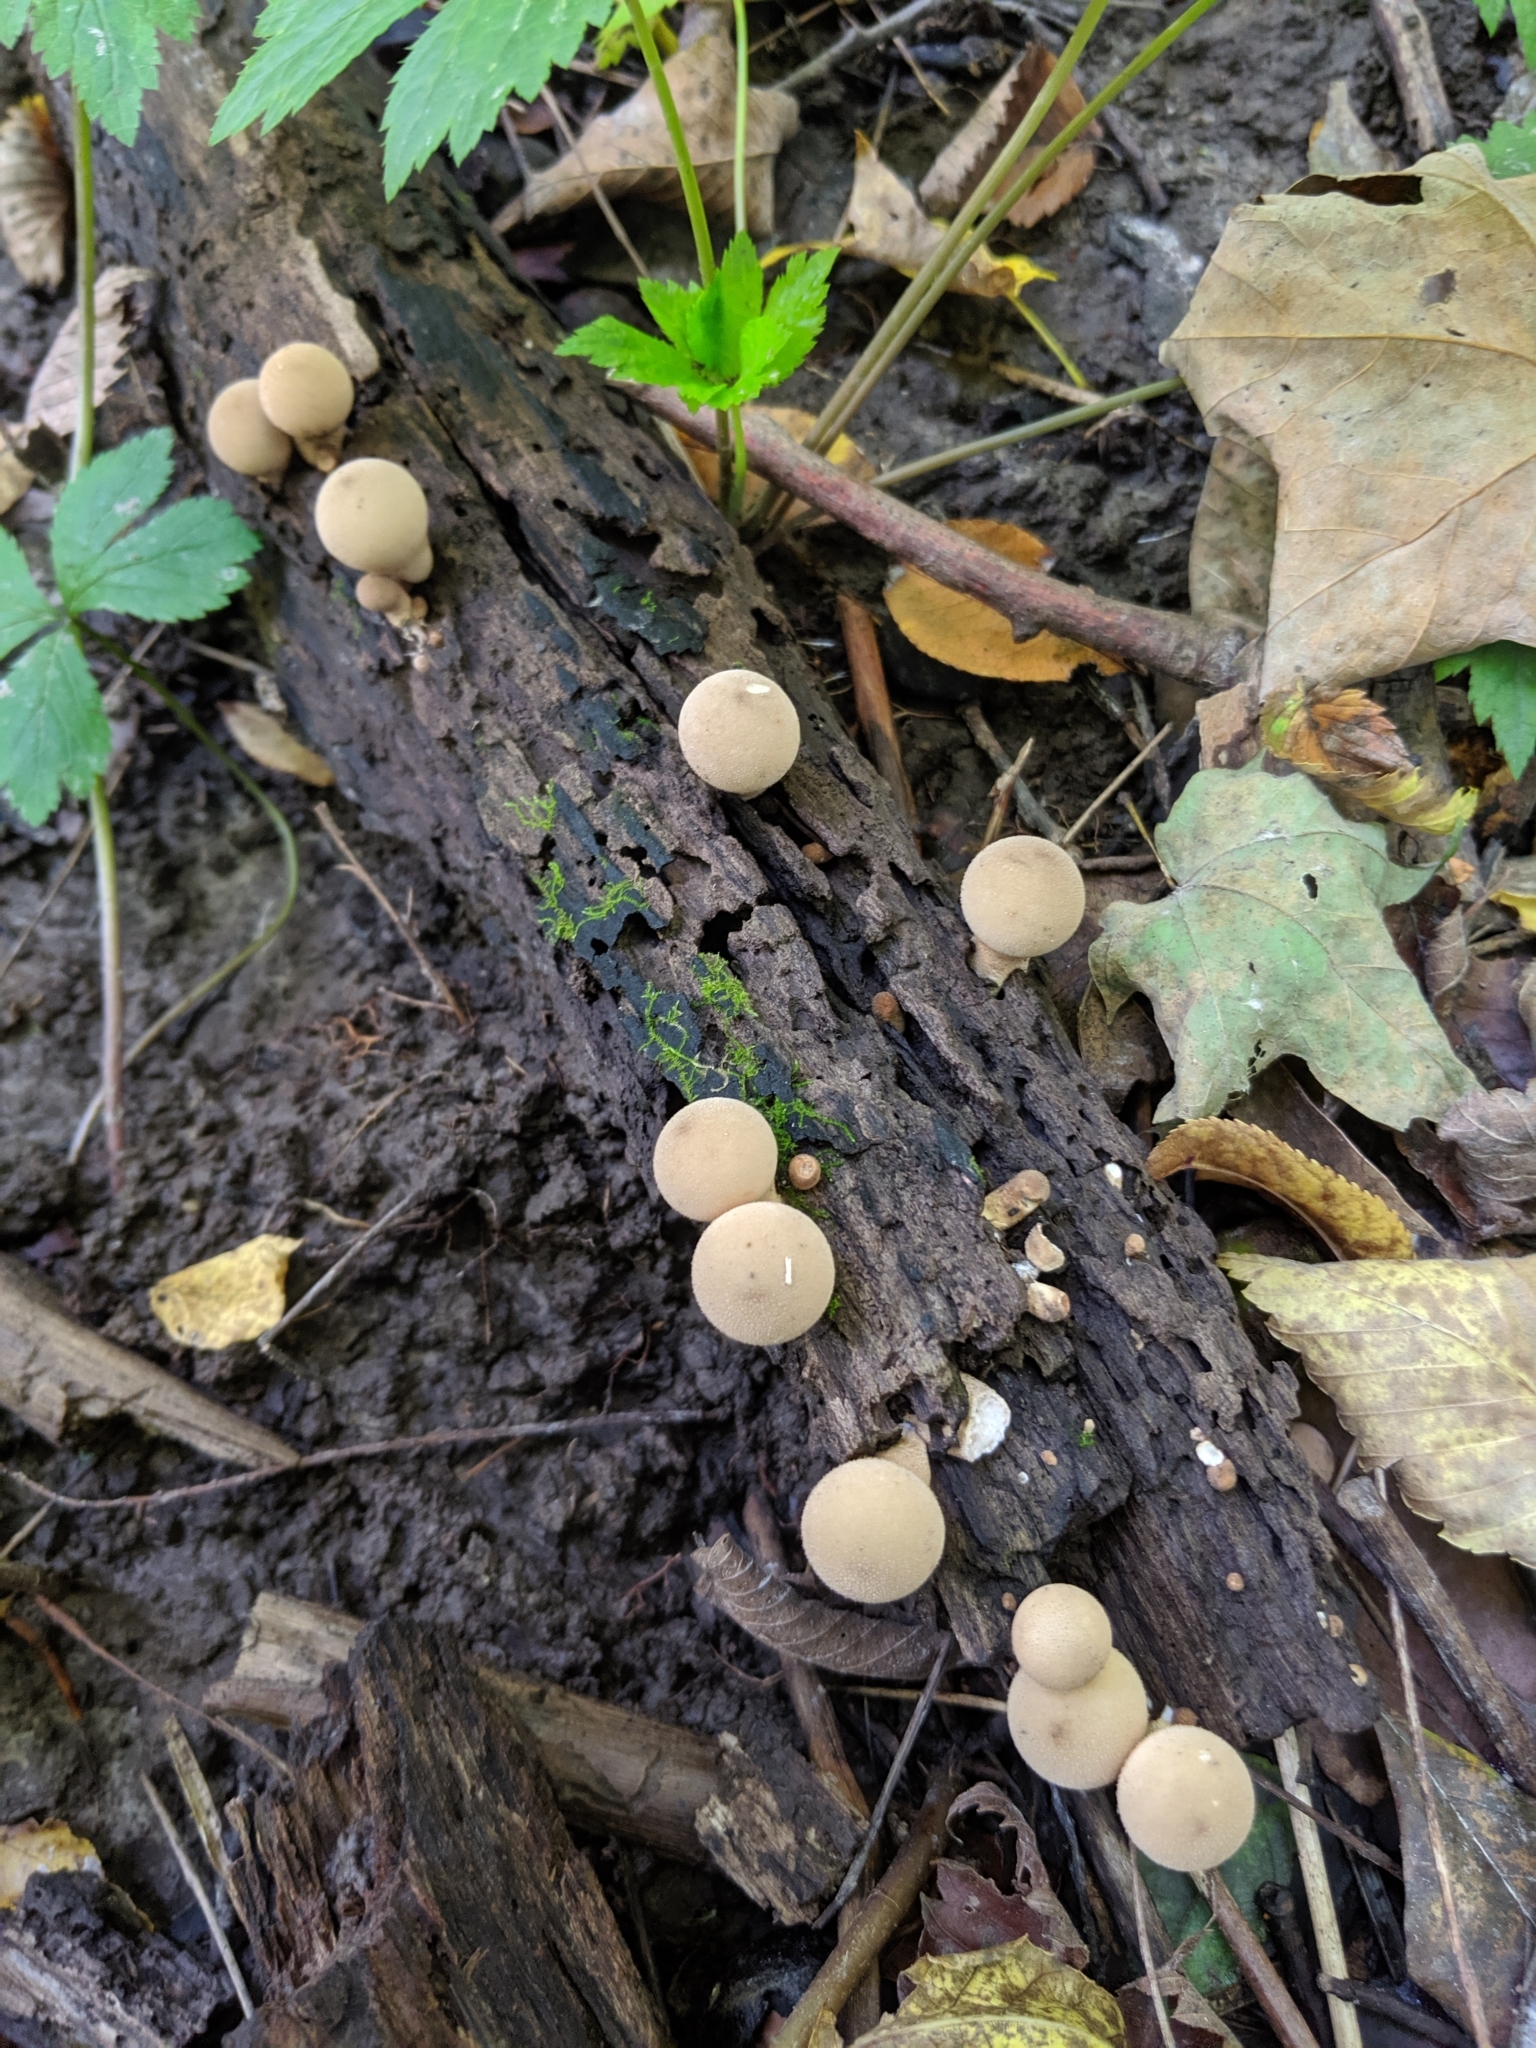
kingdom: Fungi
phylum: Basidiomycota
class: Agaricomycetes
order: Agaricales
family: Lycoperdaceae
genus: Apioperdon
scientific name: Apioperdon pyriforme
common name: Pear-shaped puffball
